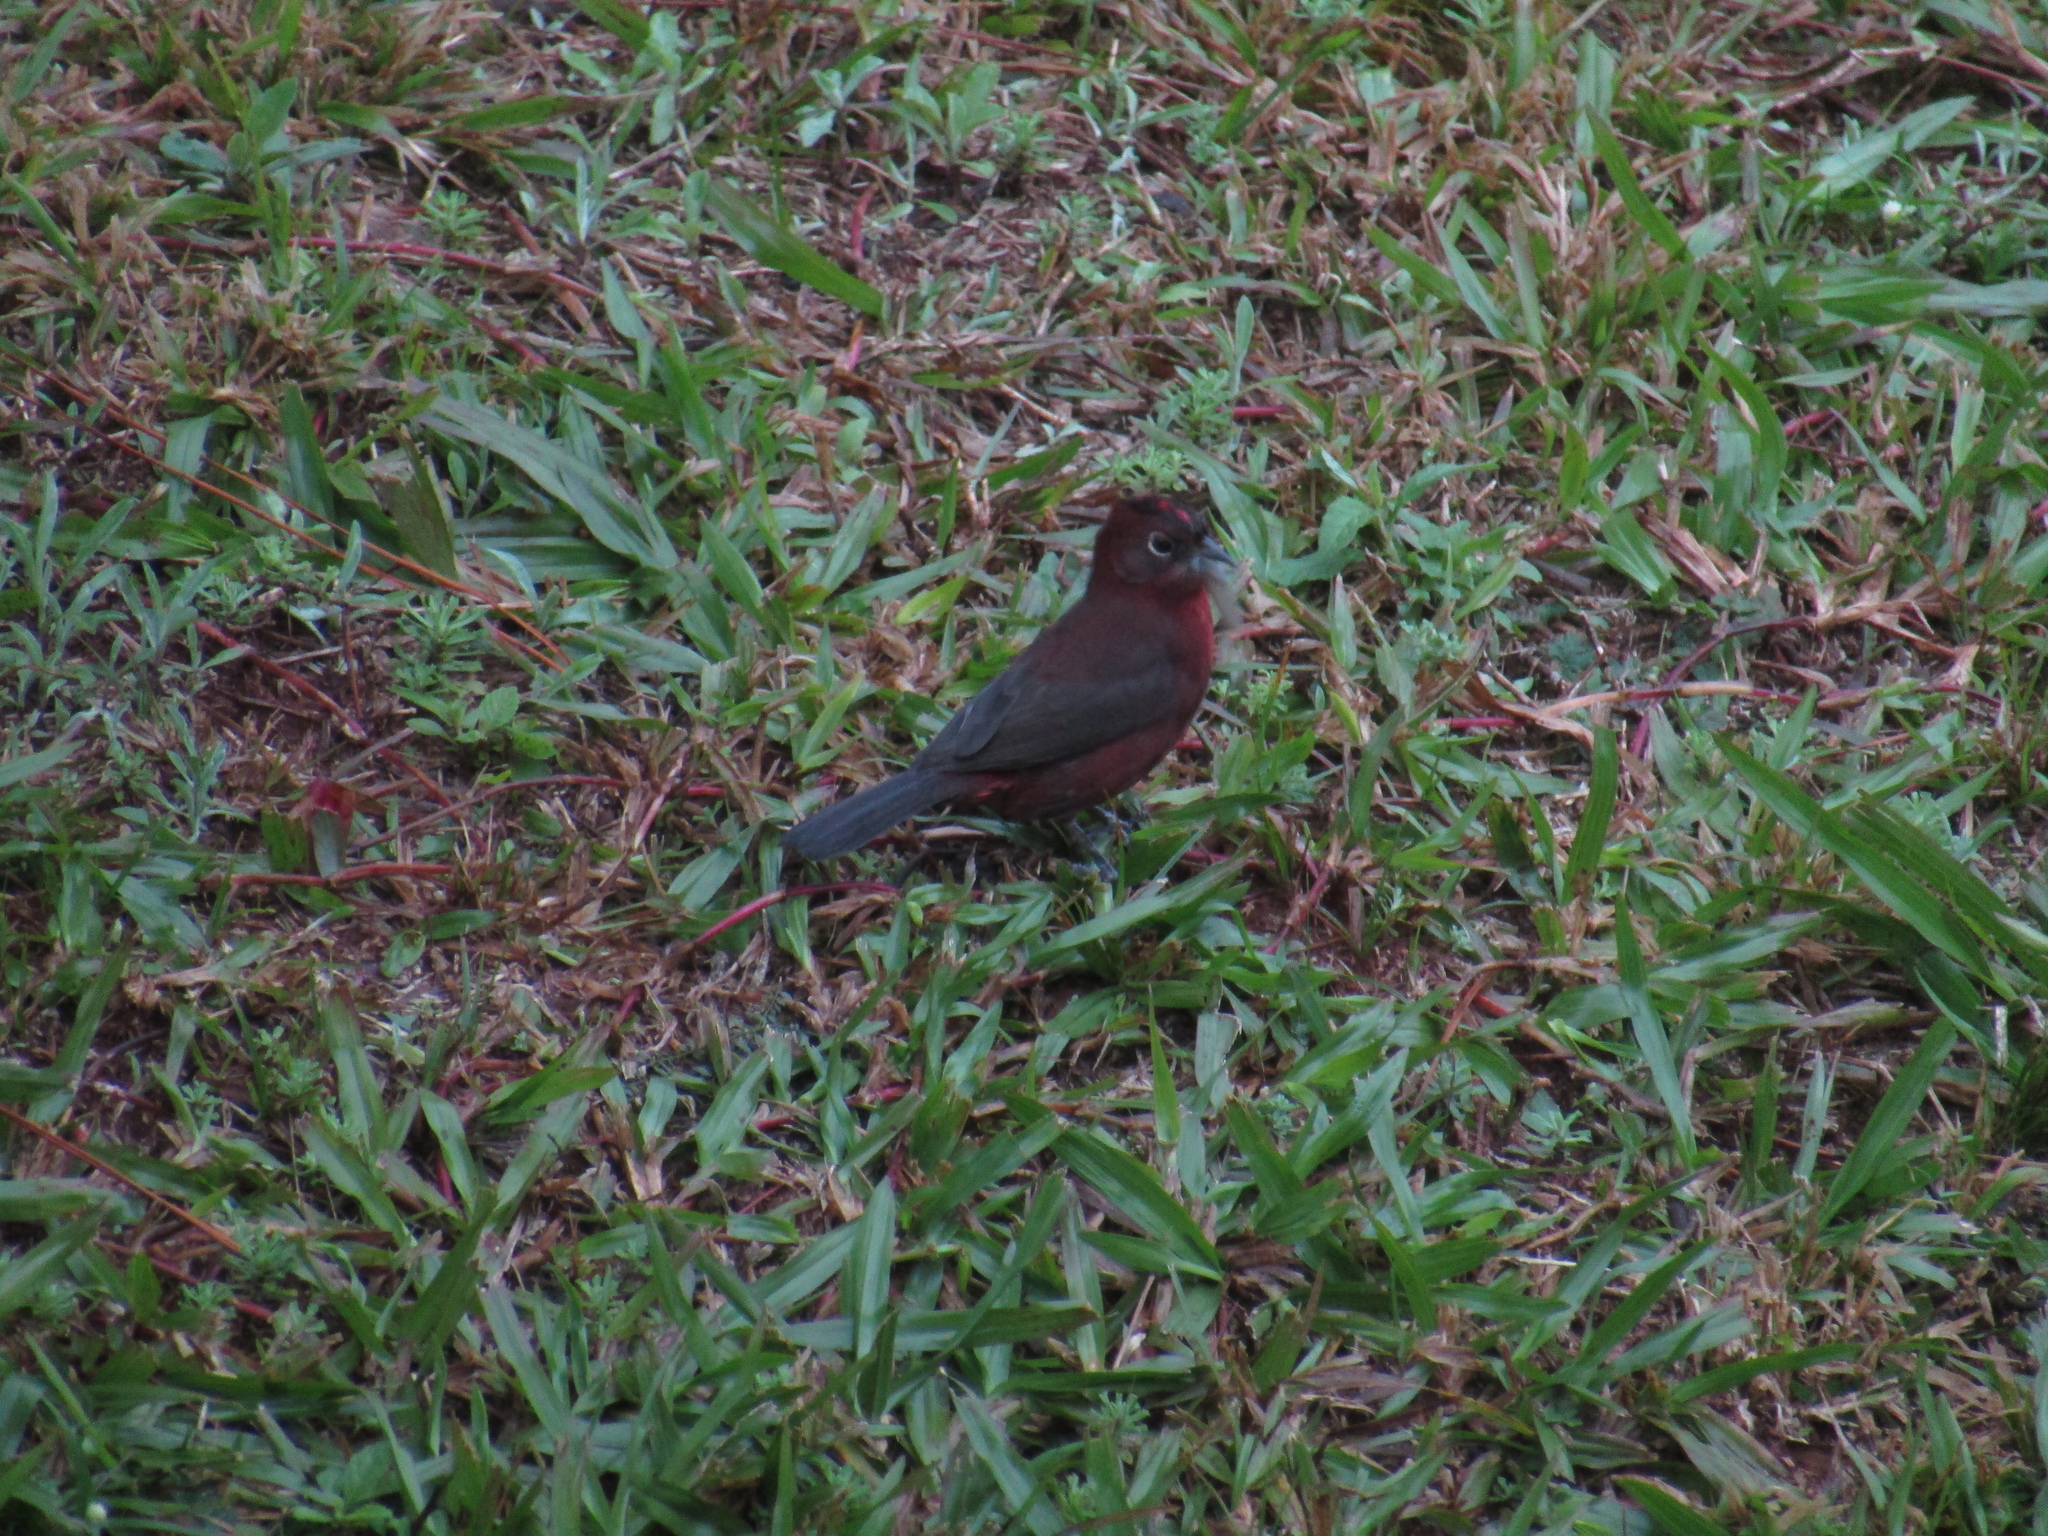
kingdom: Animalia
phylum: Chordata
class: Aves
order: Passeriformes
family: Thraupidae
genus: Coryphospingus
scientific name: Coryphospingus cucullatus
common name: Red pileated finch
